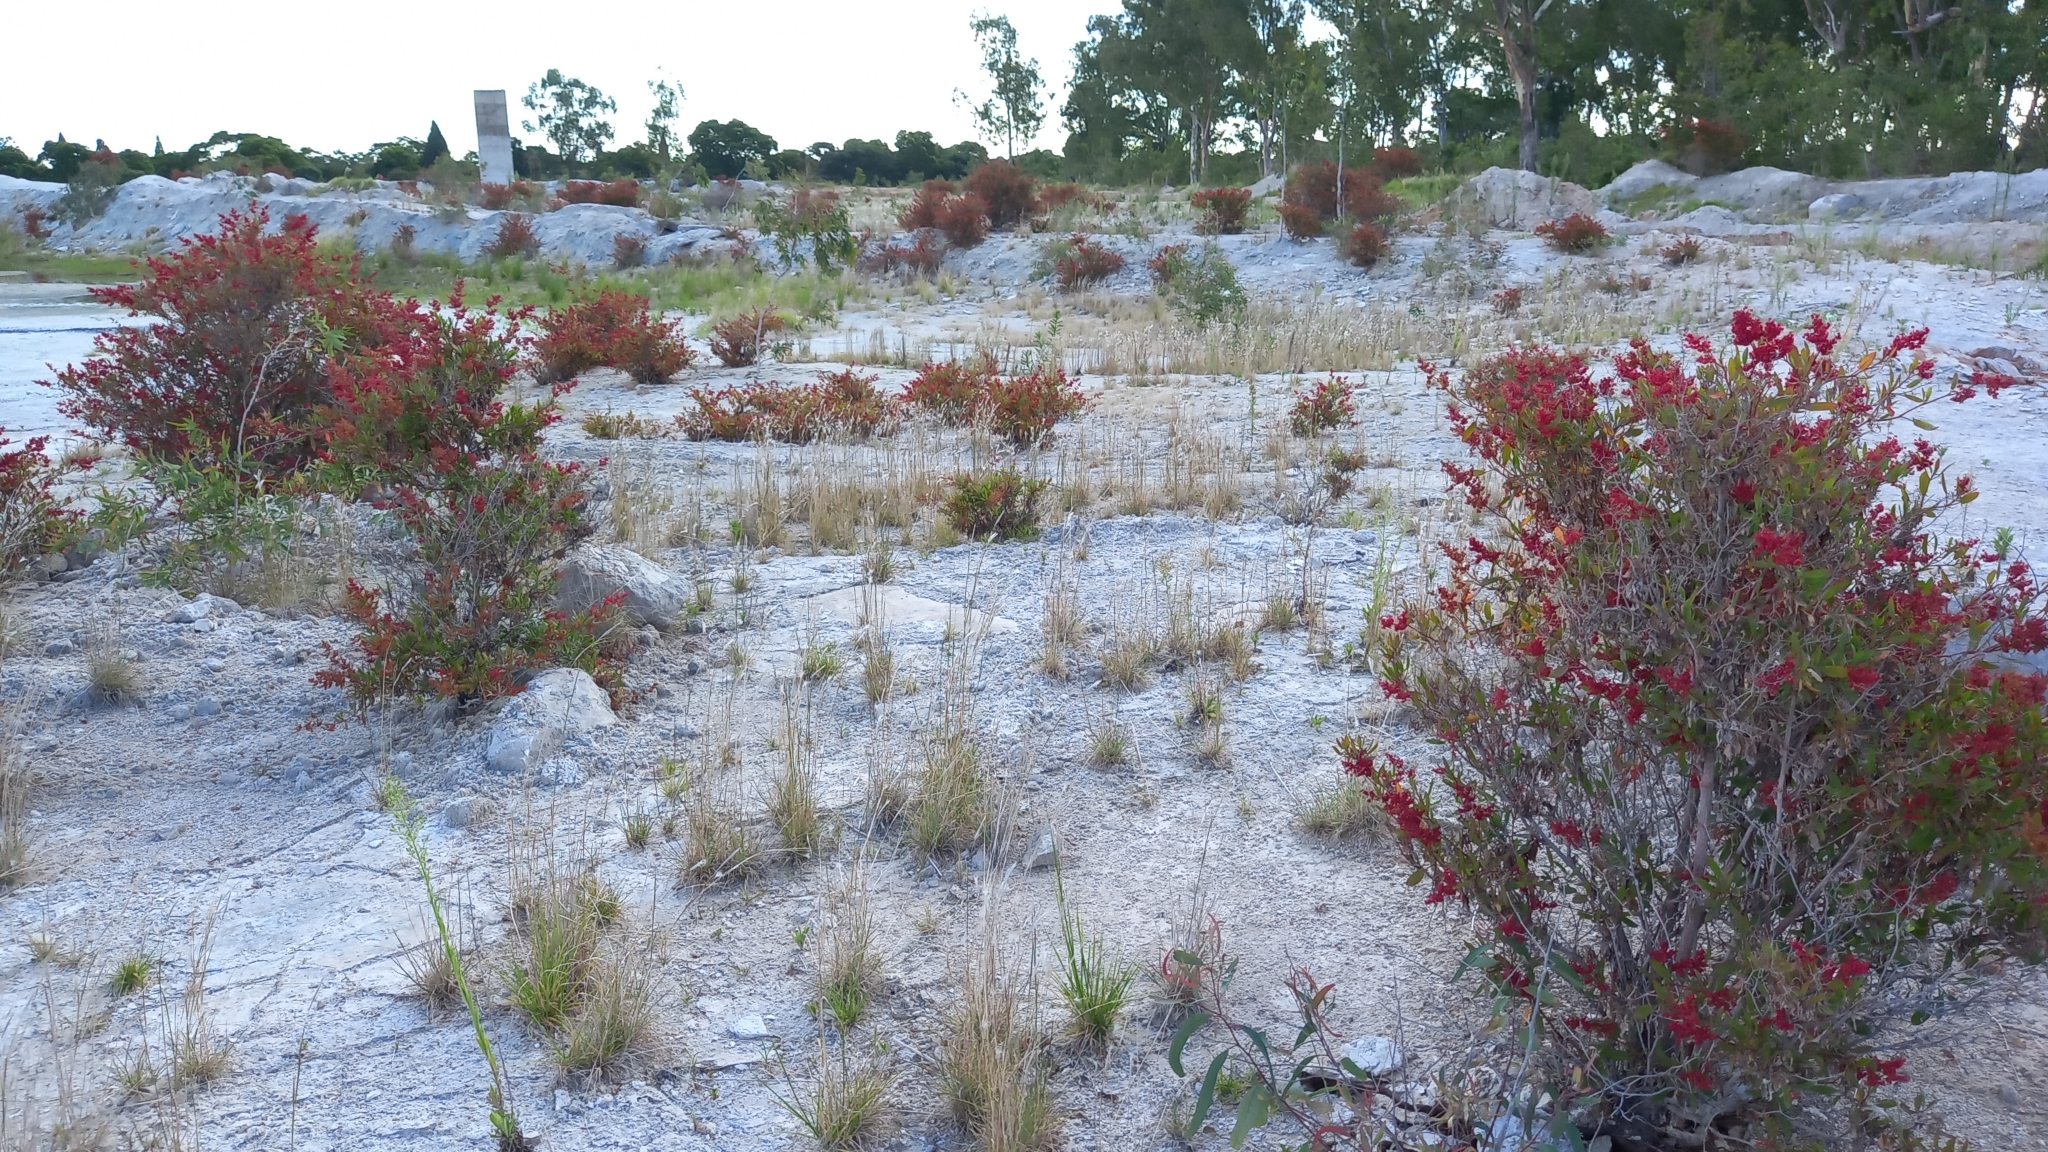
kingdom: Plantae
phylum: Tracheophyta
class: Magnoliopsida
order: Caryophyllales
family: Polygonaceae
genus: Rumex
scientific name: Rumex usambarensis
